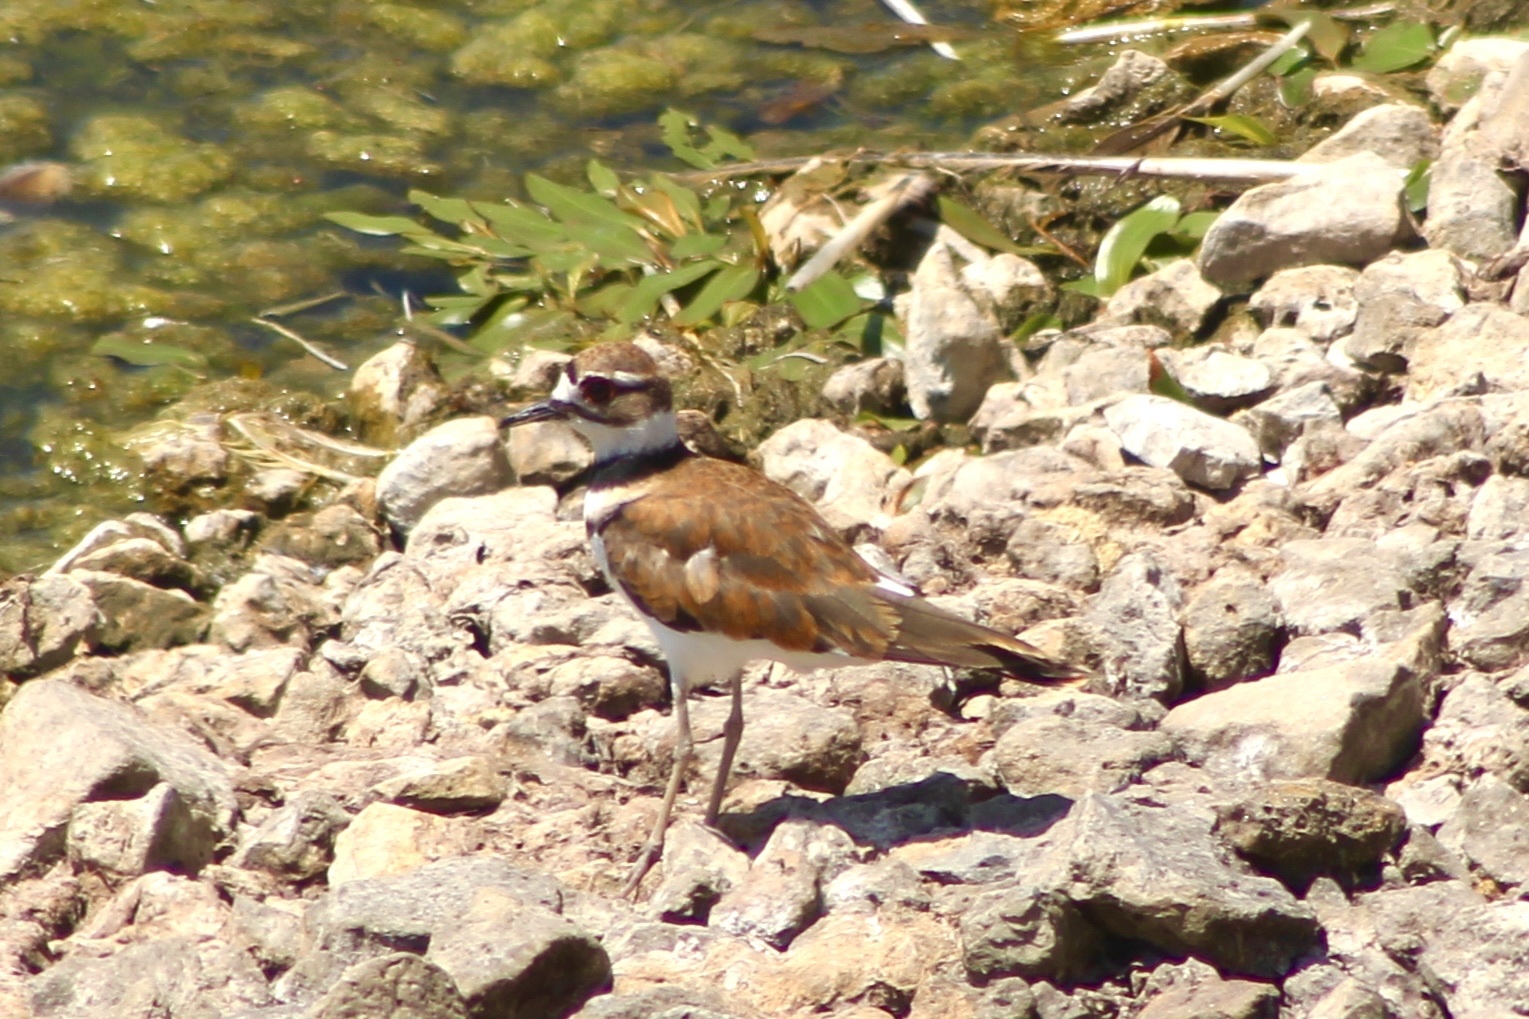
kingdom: Animalia
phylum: Chordata
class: Aves
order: Charadriiformes
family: Charadriidae
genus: Charadrius
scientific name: Charadrius vociferus
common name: Killdeer
